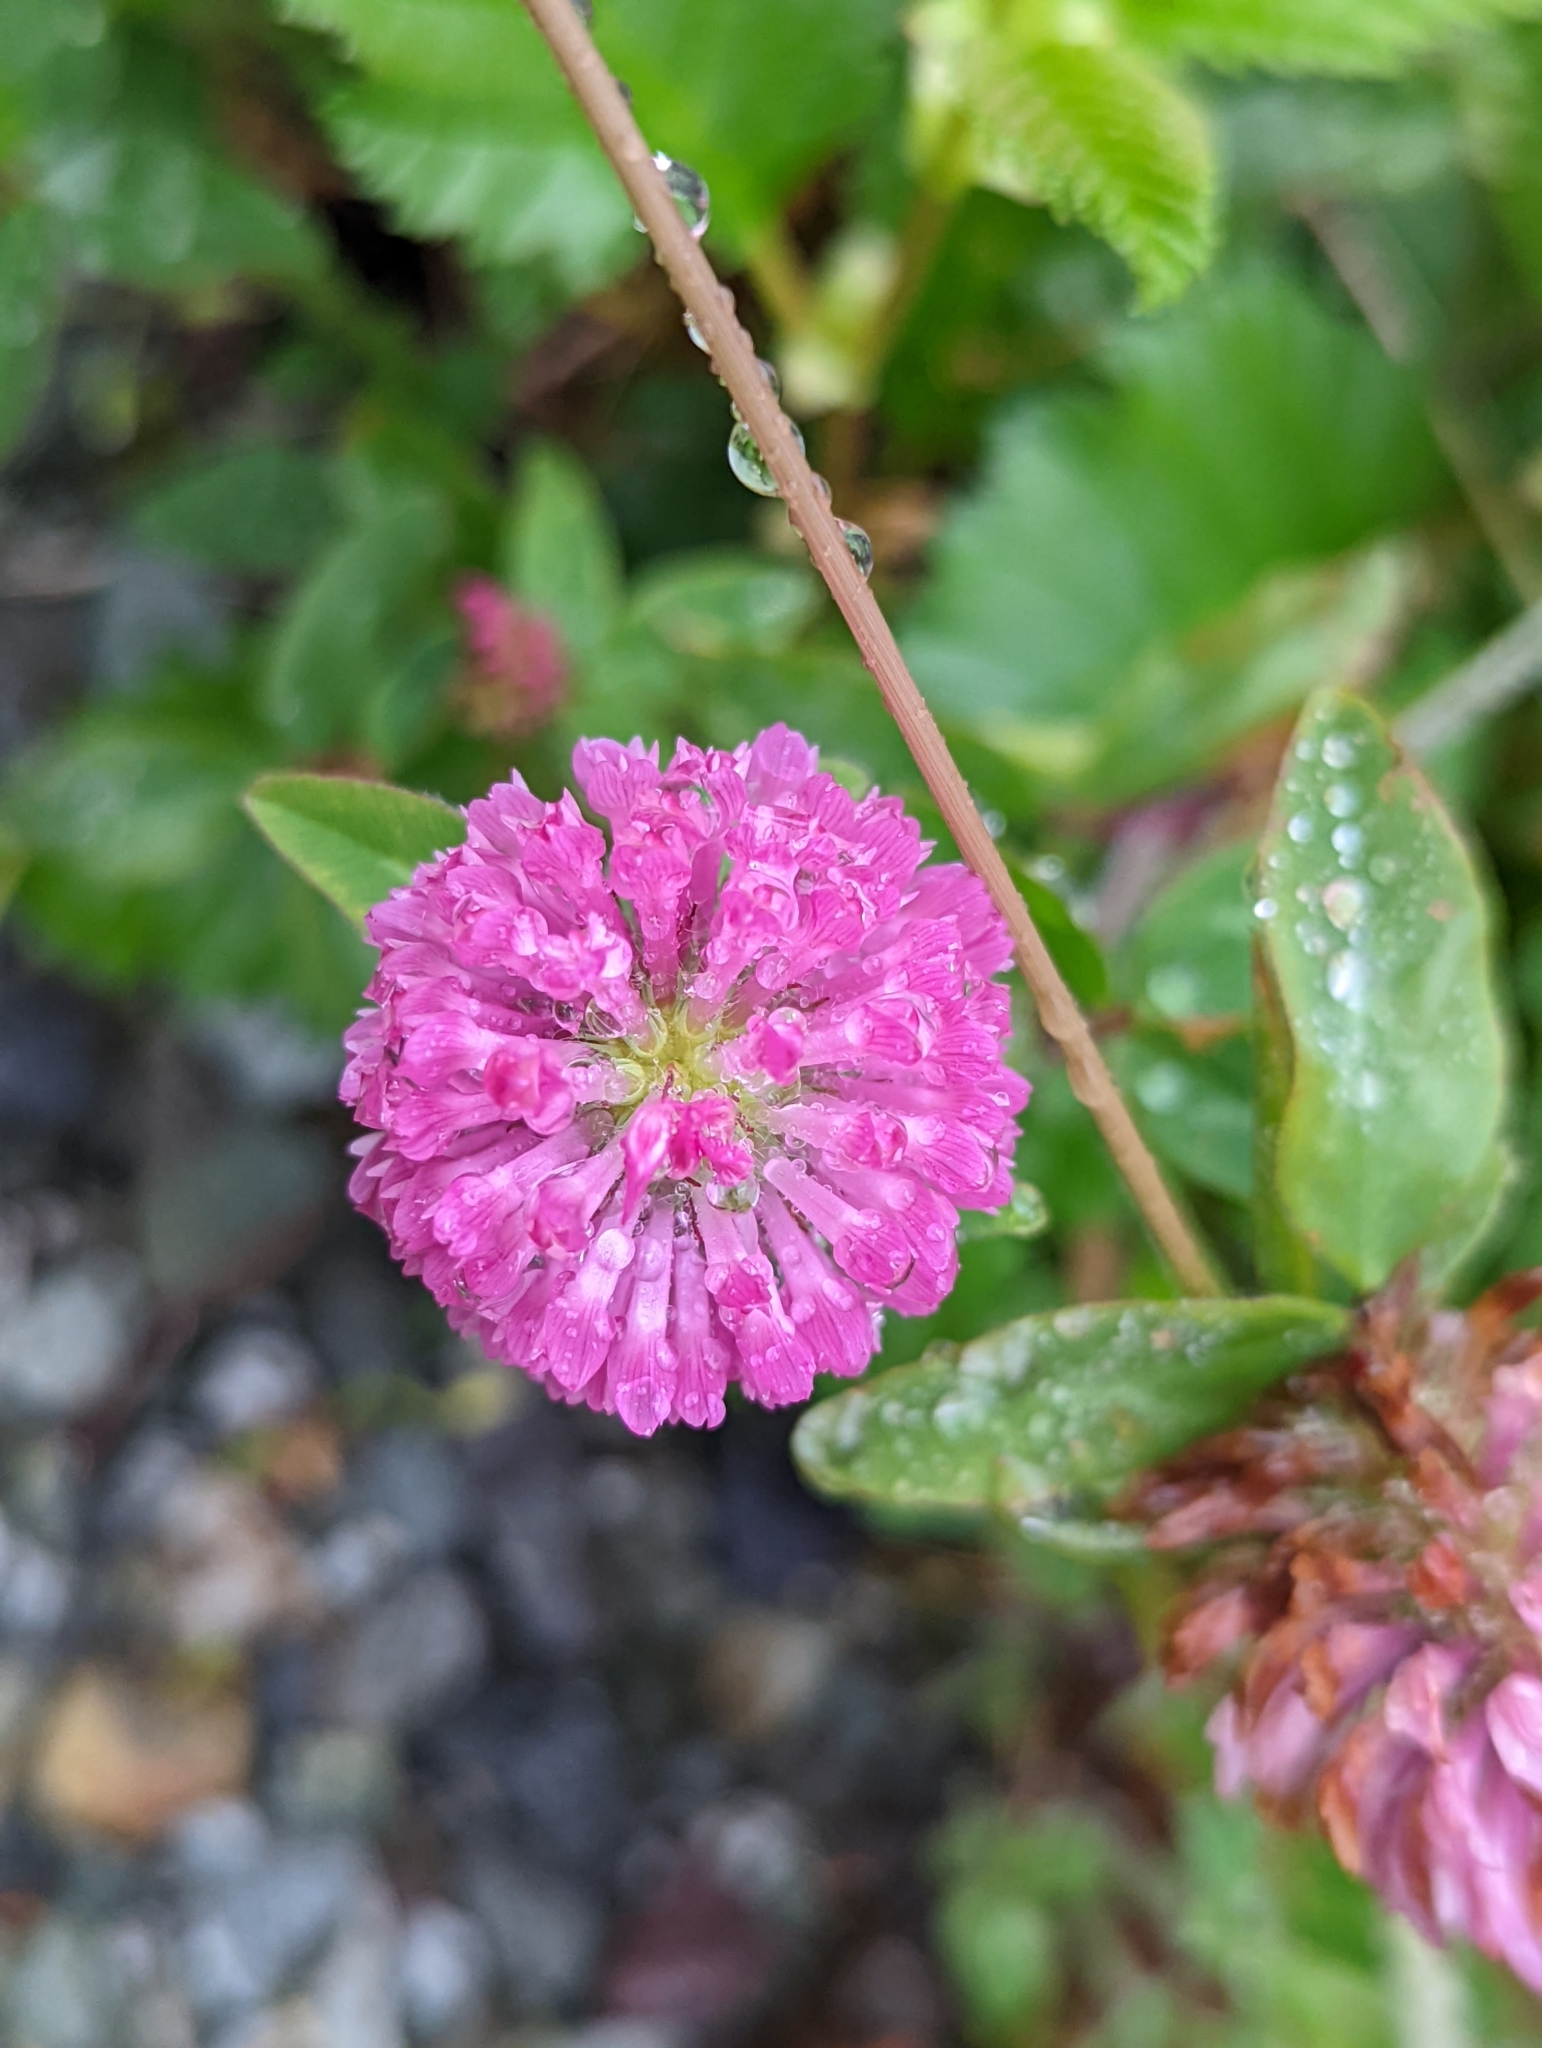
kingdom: Plantae
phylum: Tracheophyta
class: Magnoliopsida
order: Fabales
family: Fabaceae
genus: Trifolium
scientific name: Trifolium pratense
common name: Red clover
